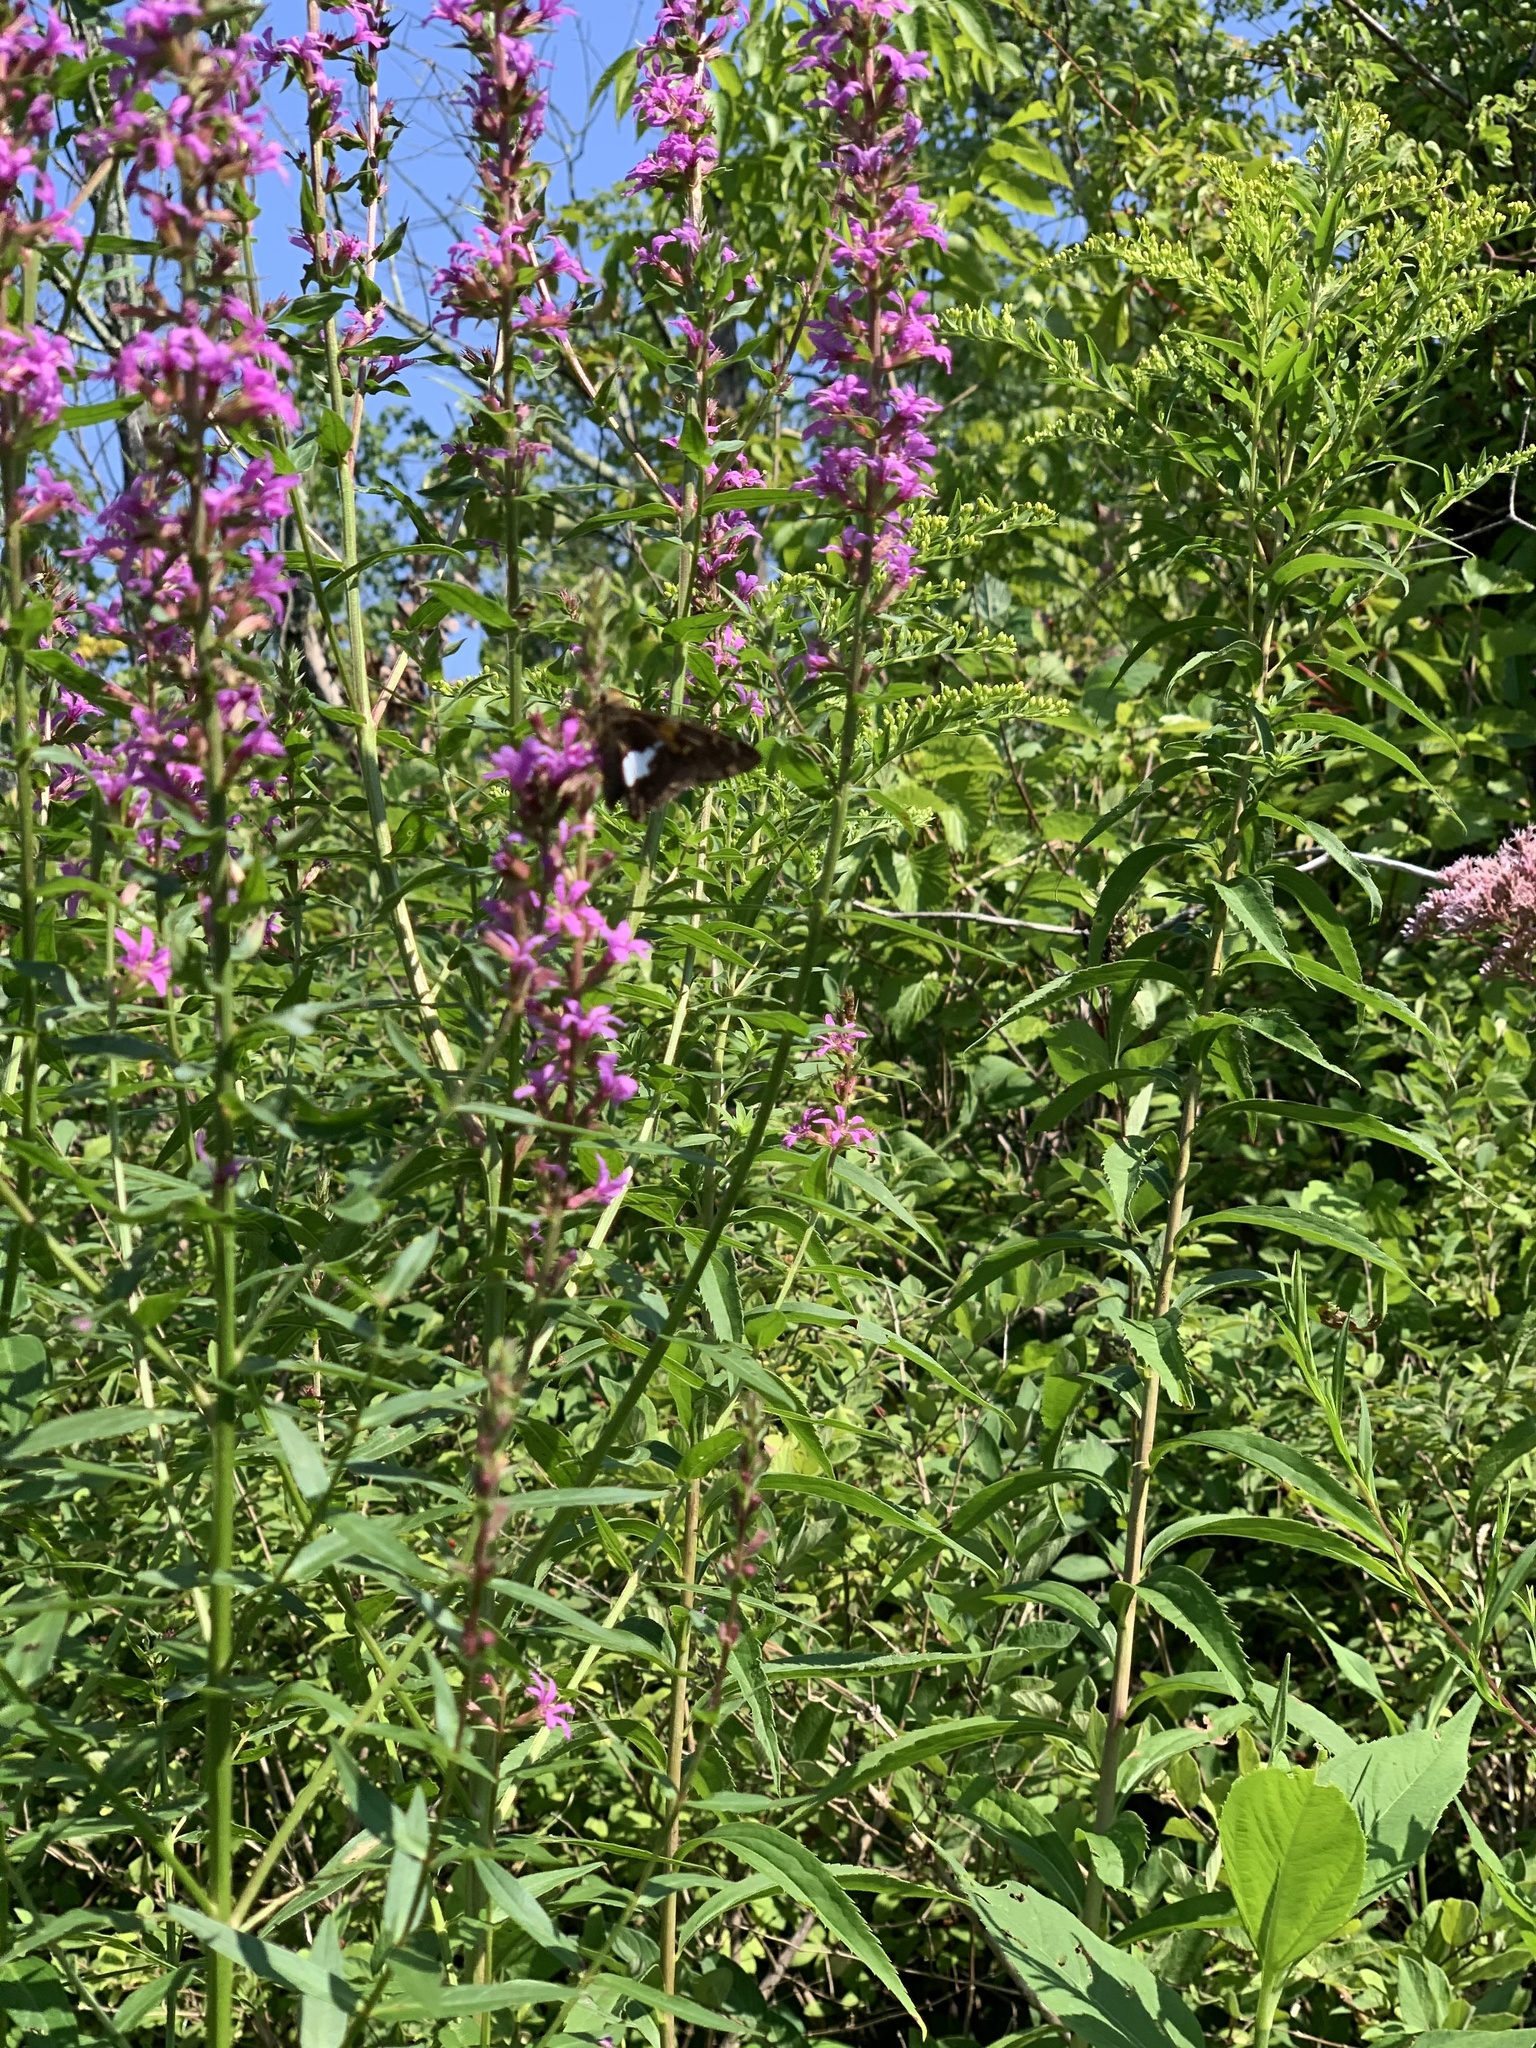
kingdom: Animalia
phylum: Arthropoda
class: Insecta
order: Lepidoptera
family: Hesperiidae
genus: Epargyreus
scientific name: Epargyreus clarus
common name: Silver-spotted skipper
